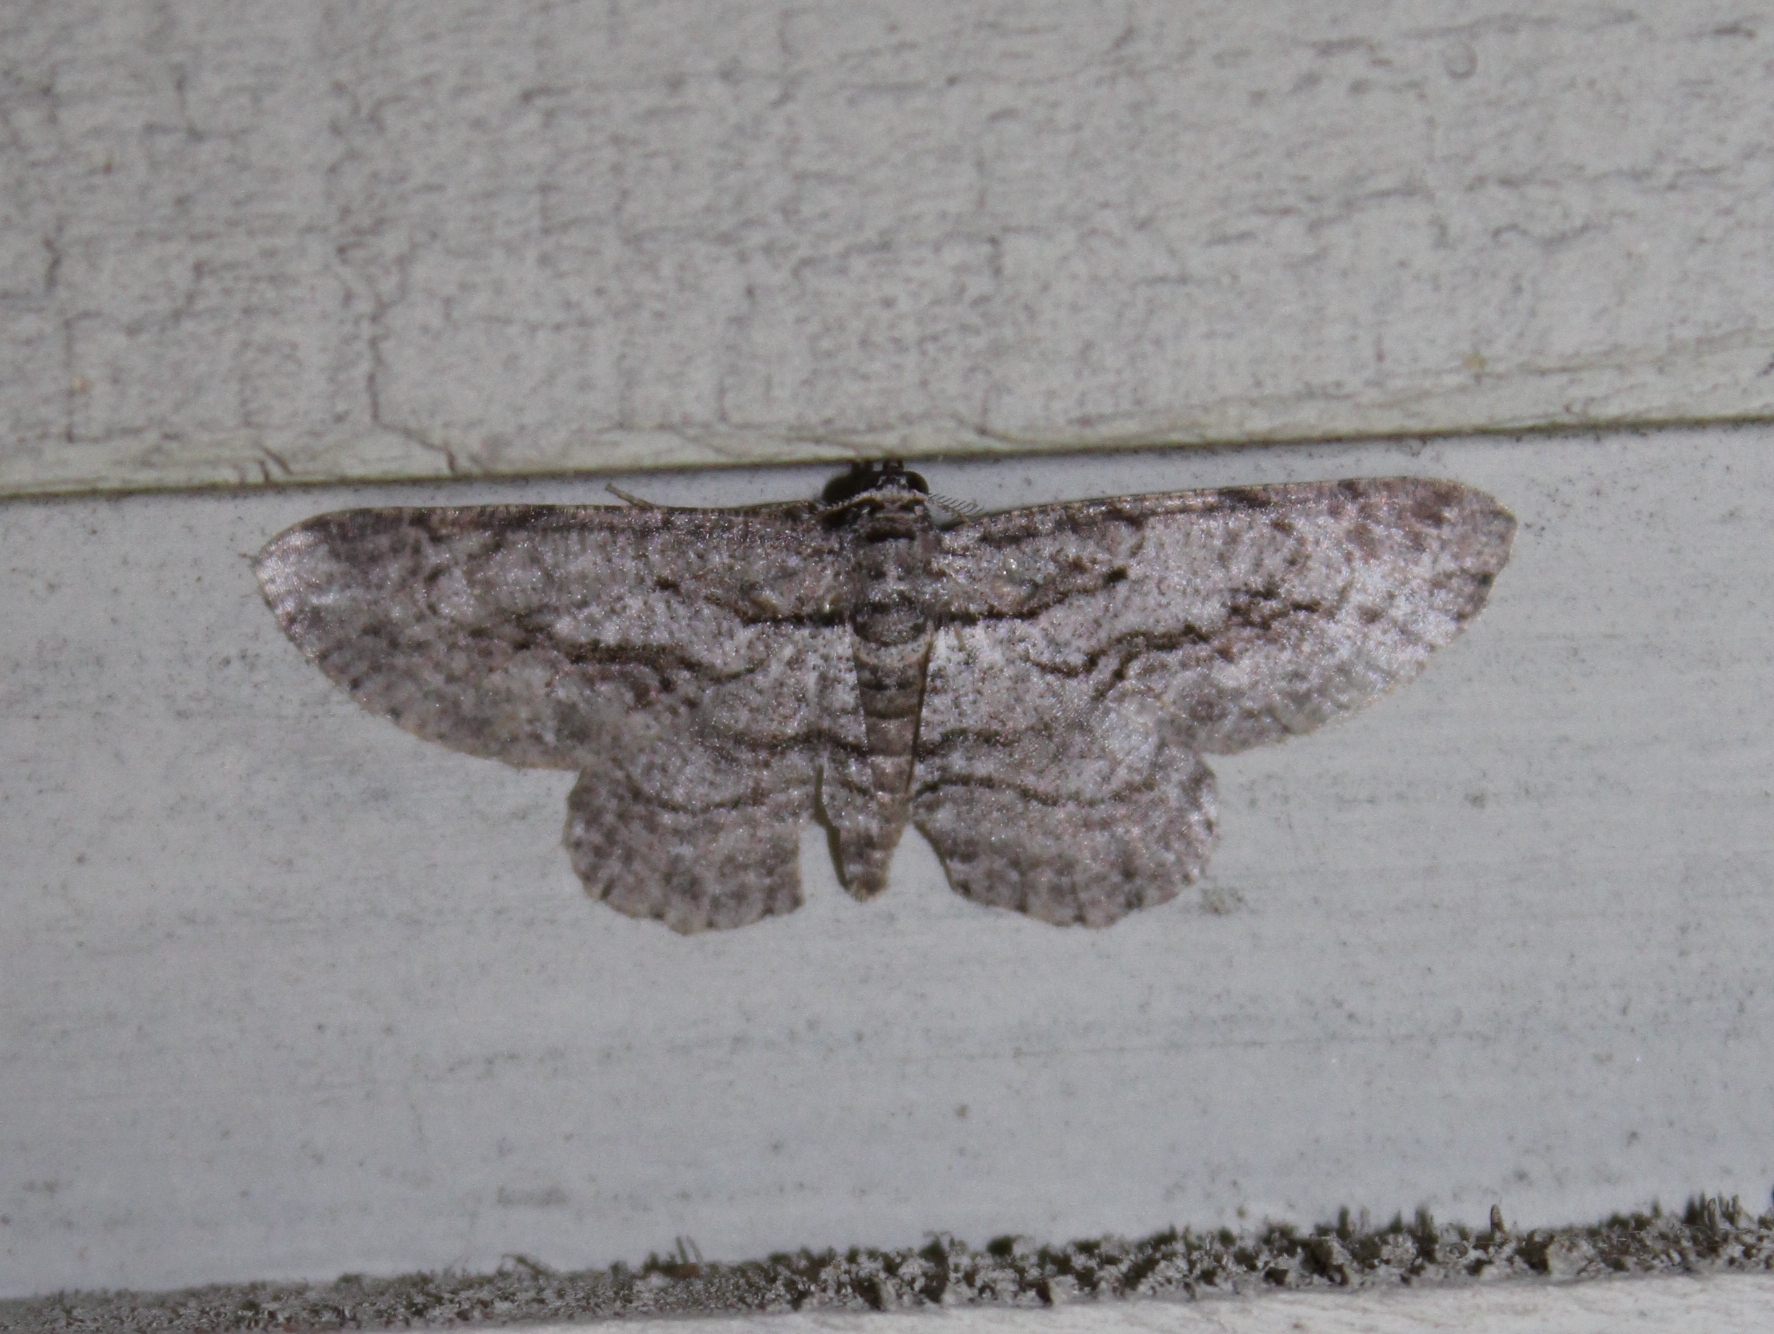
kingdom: Animalia
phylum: Arthropoda
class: Insecta
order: Lepidoptera
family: Geometridae
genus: Anavitrinella
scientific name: Anavitrinella pampinaria
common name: Common gray
